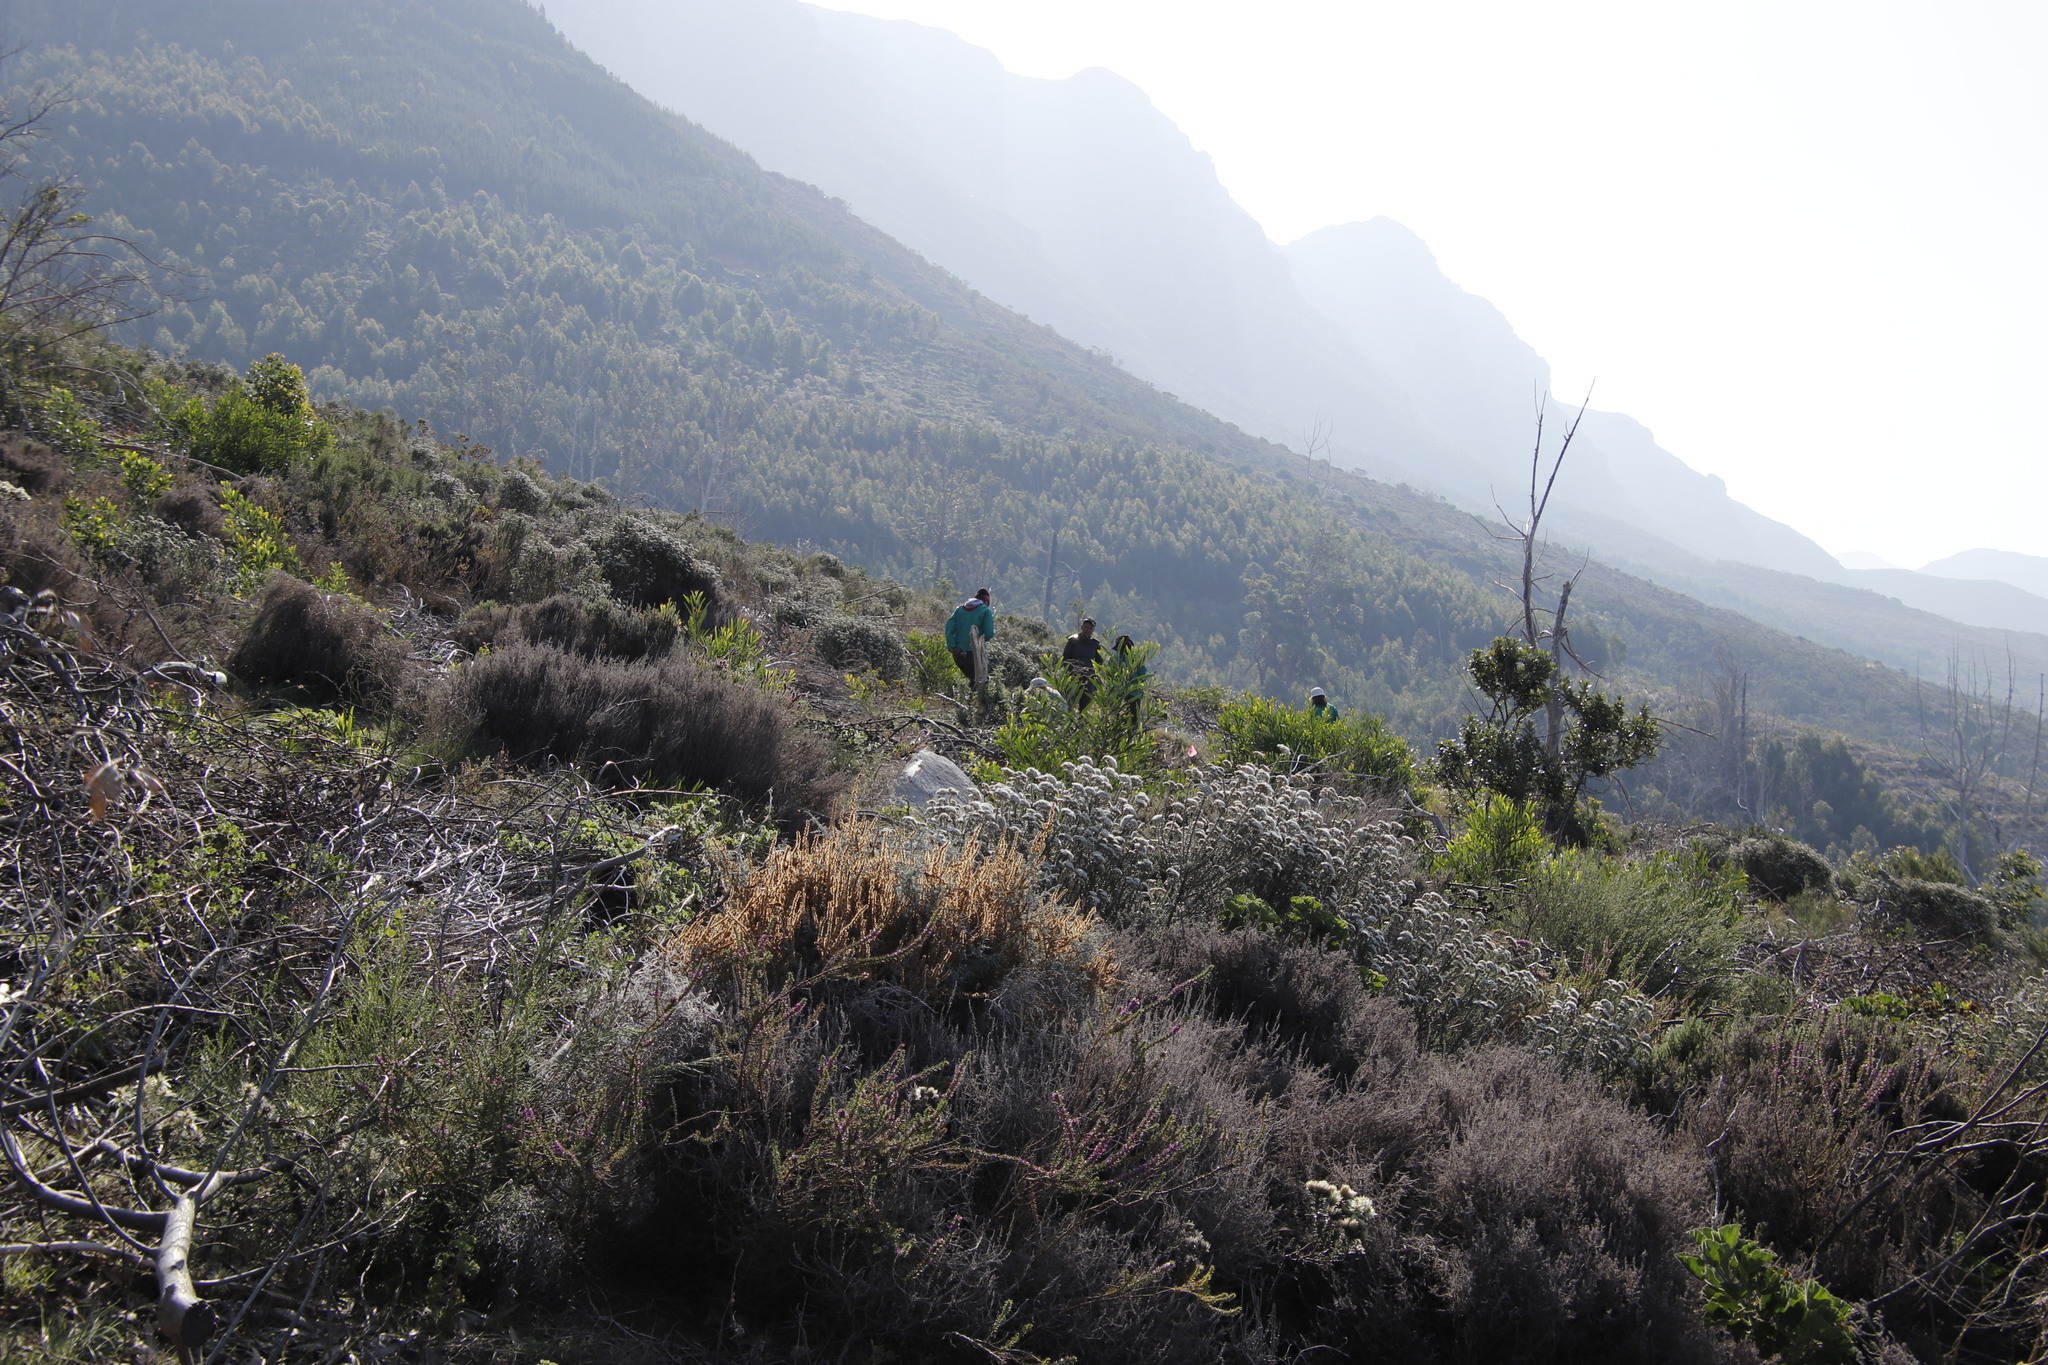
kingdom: Plantae
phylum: Tracheophyta
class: Magnoliopsida
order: Asterales
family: Asteraceae
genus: Seriphium
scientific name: Seriphium cinereum
